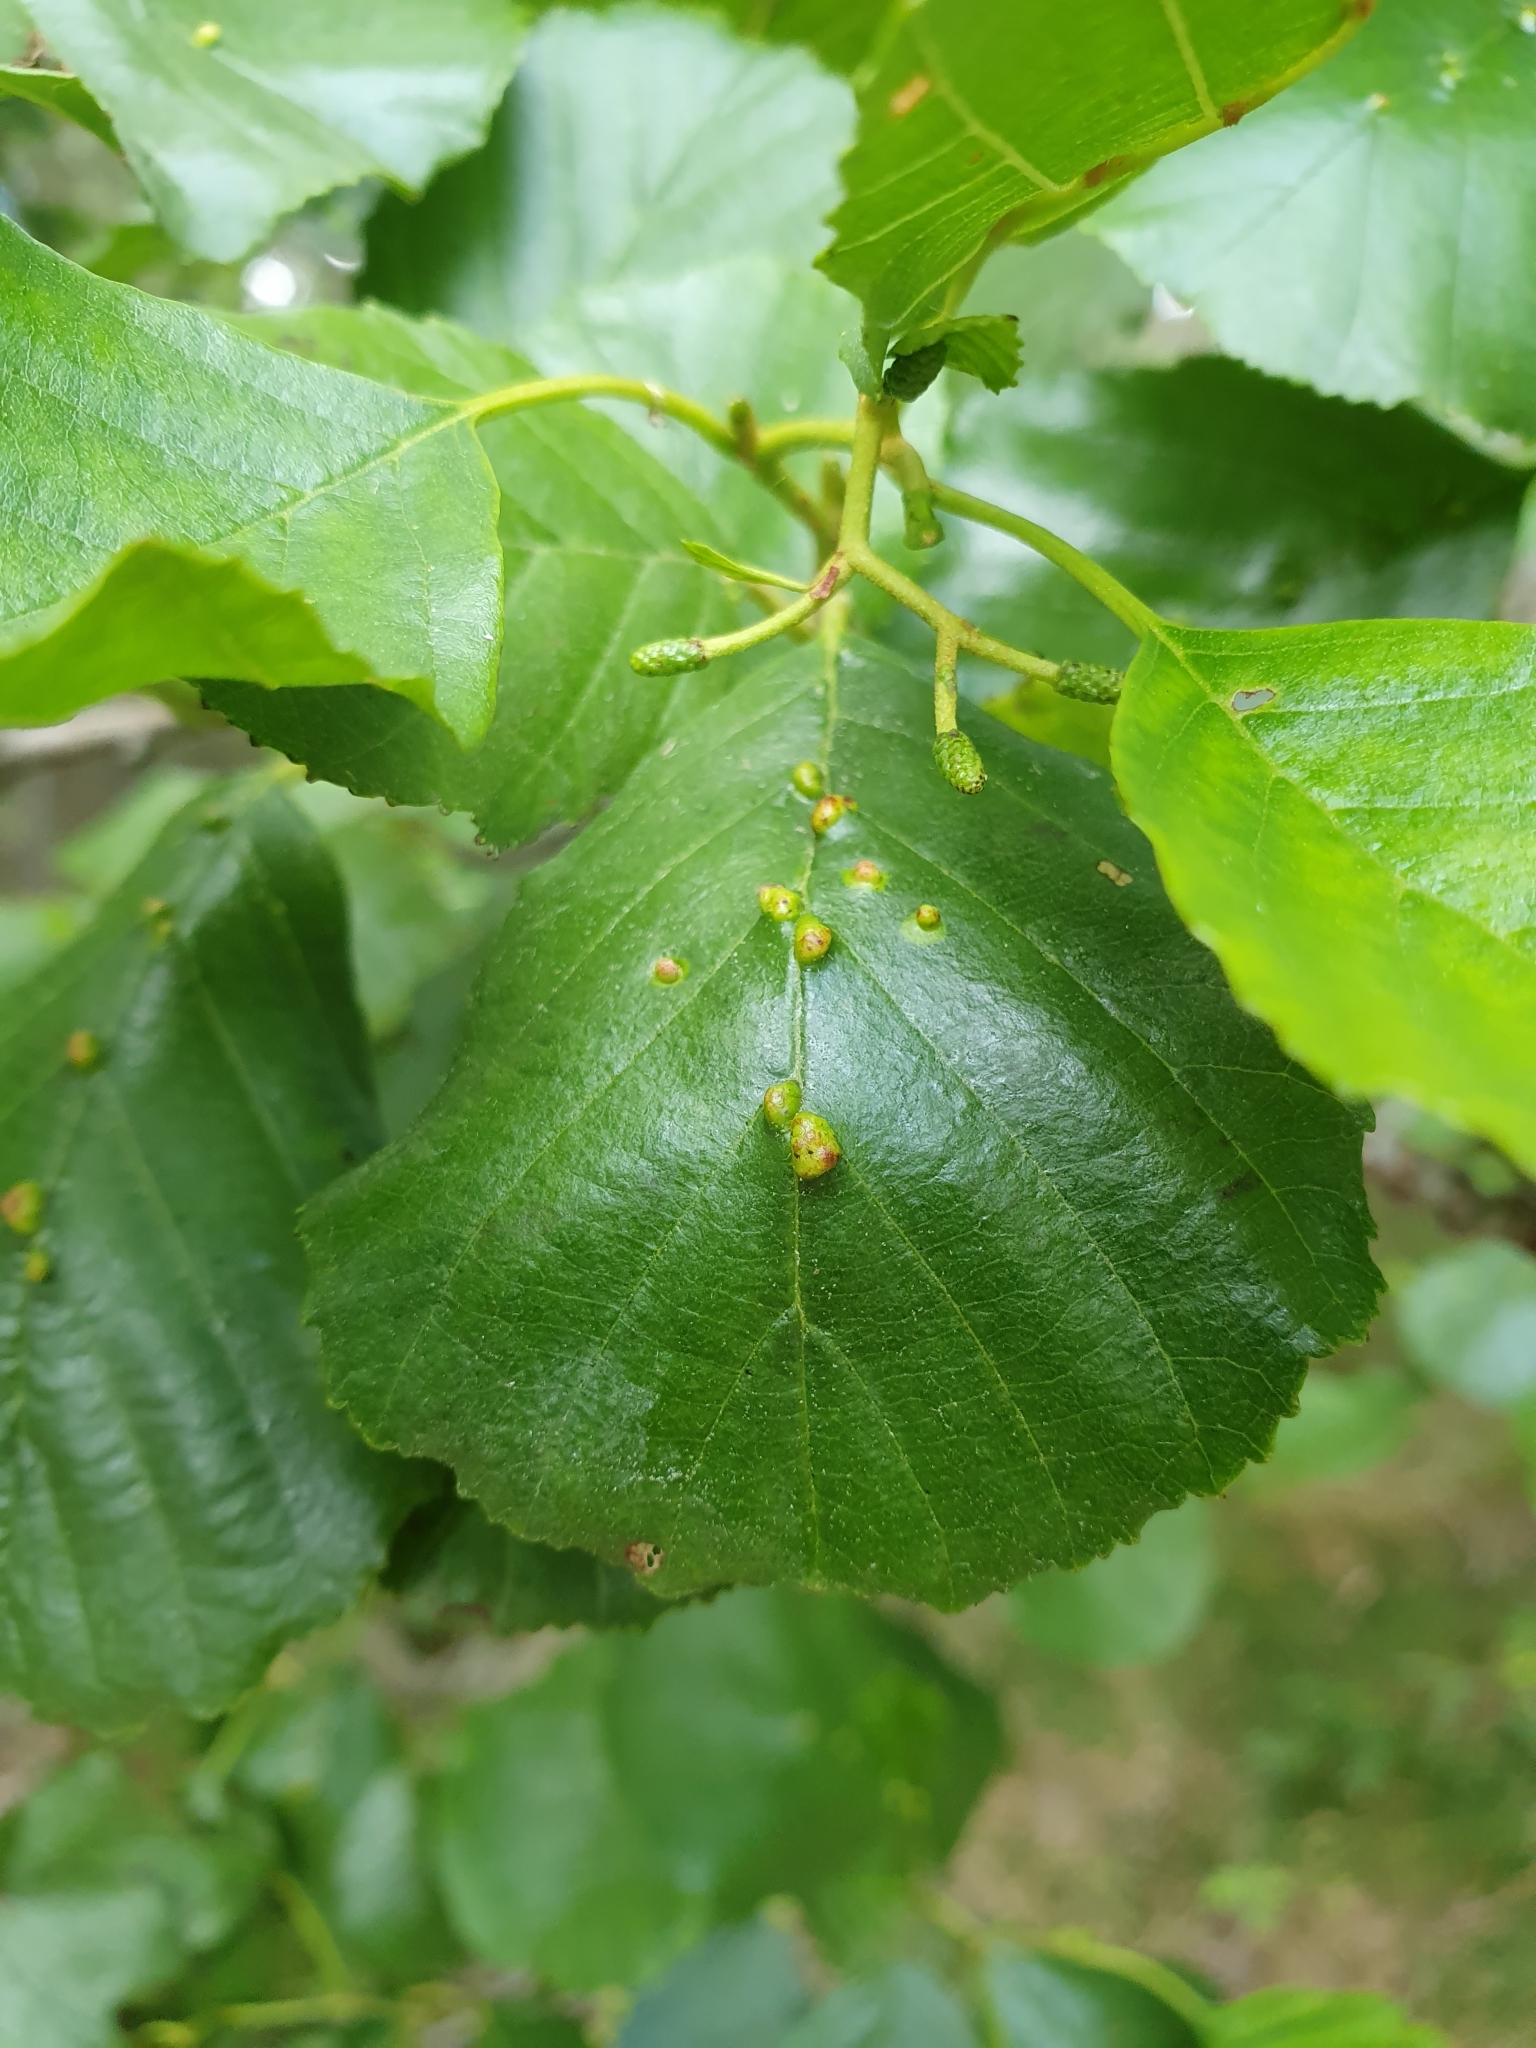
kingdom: Animalia
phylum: Arthropoda
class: Arachnida
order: Trombidiformes
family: Eriophyidae
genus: Eriophyes
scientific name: Eriophyes inangulis
